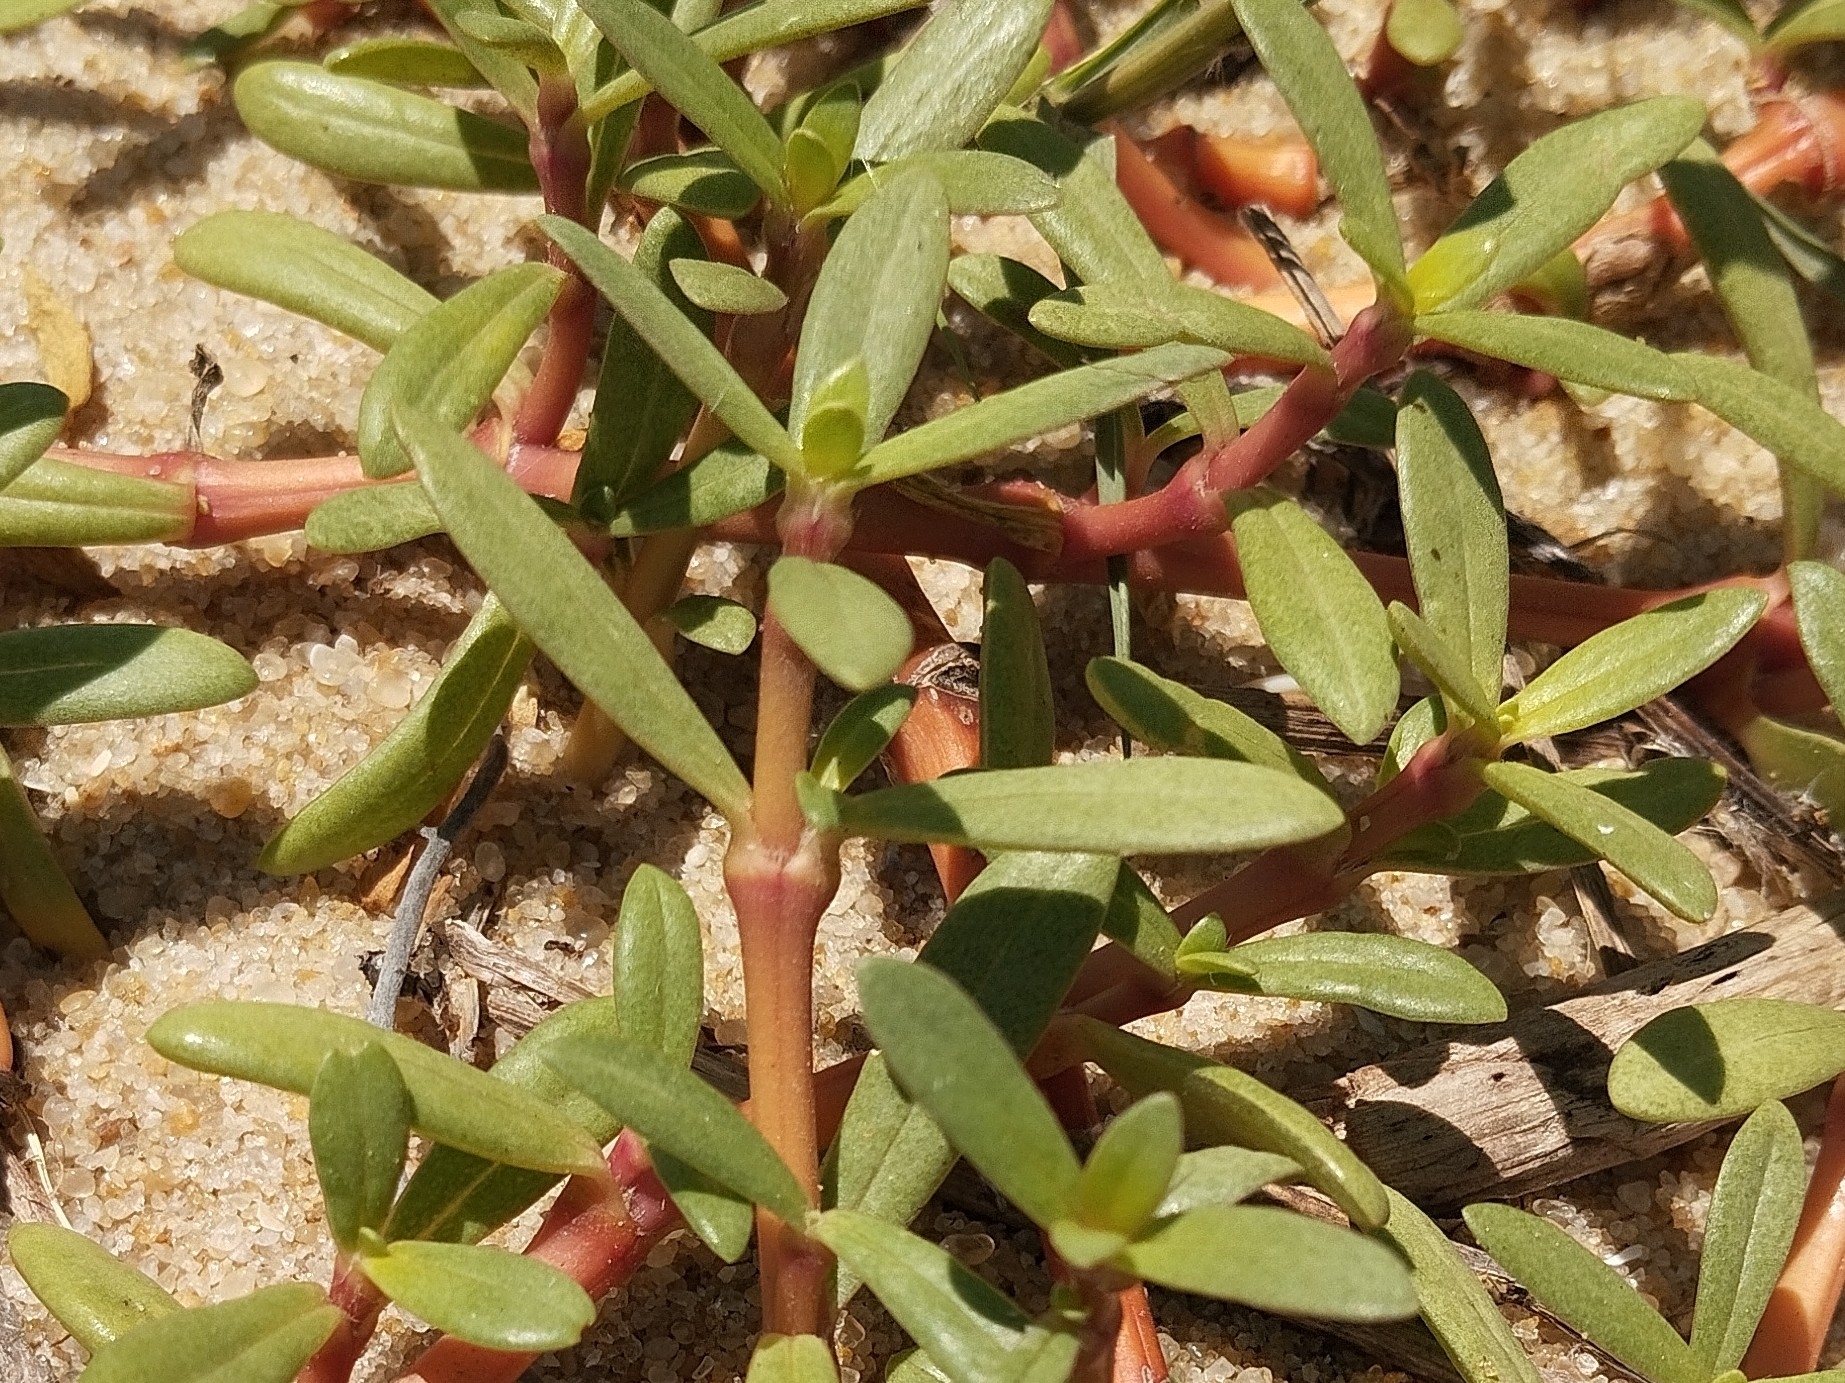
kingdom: Plantae
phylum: Tracheophyta
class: Magnoliopsida
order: Caryophyllales
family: Aizoaceae
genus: Sesuvium
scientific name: Sesuvium portulacastrum
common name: Sea-purslane
